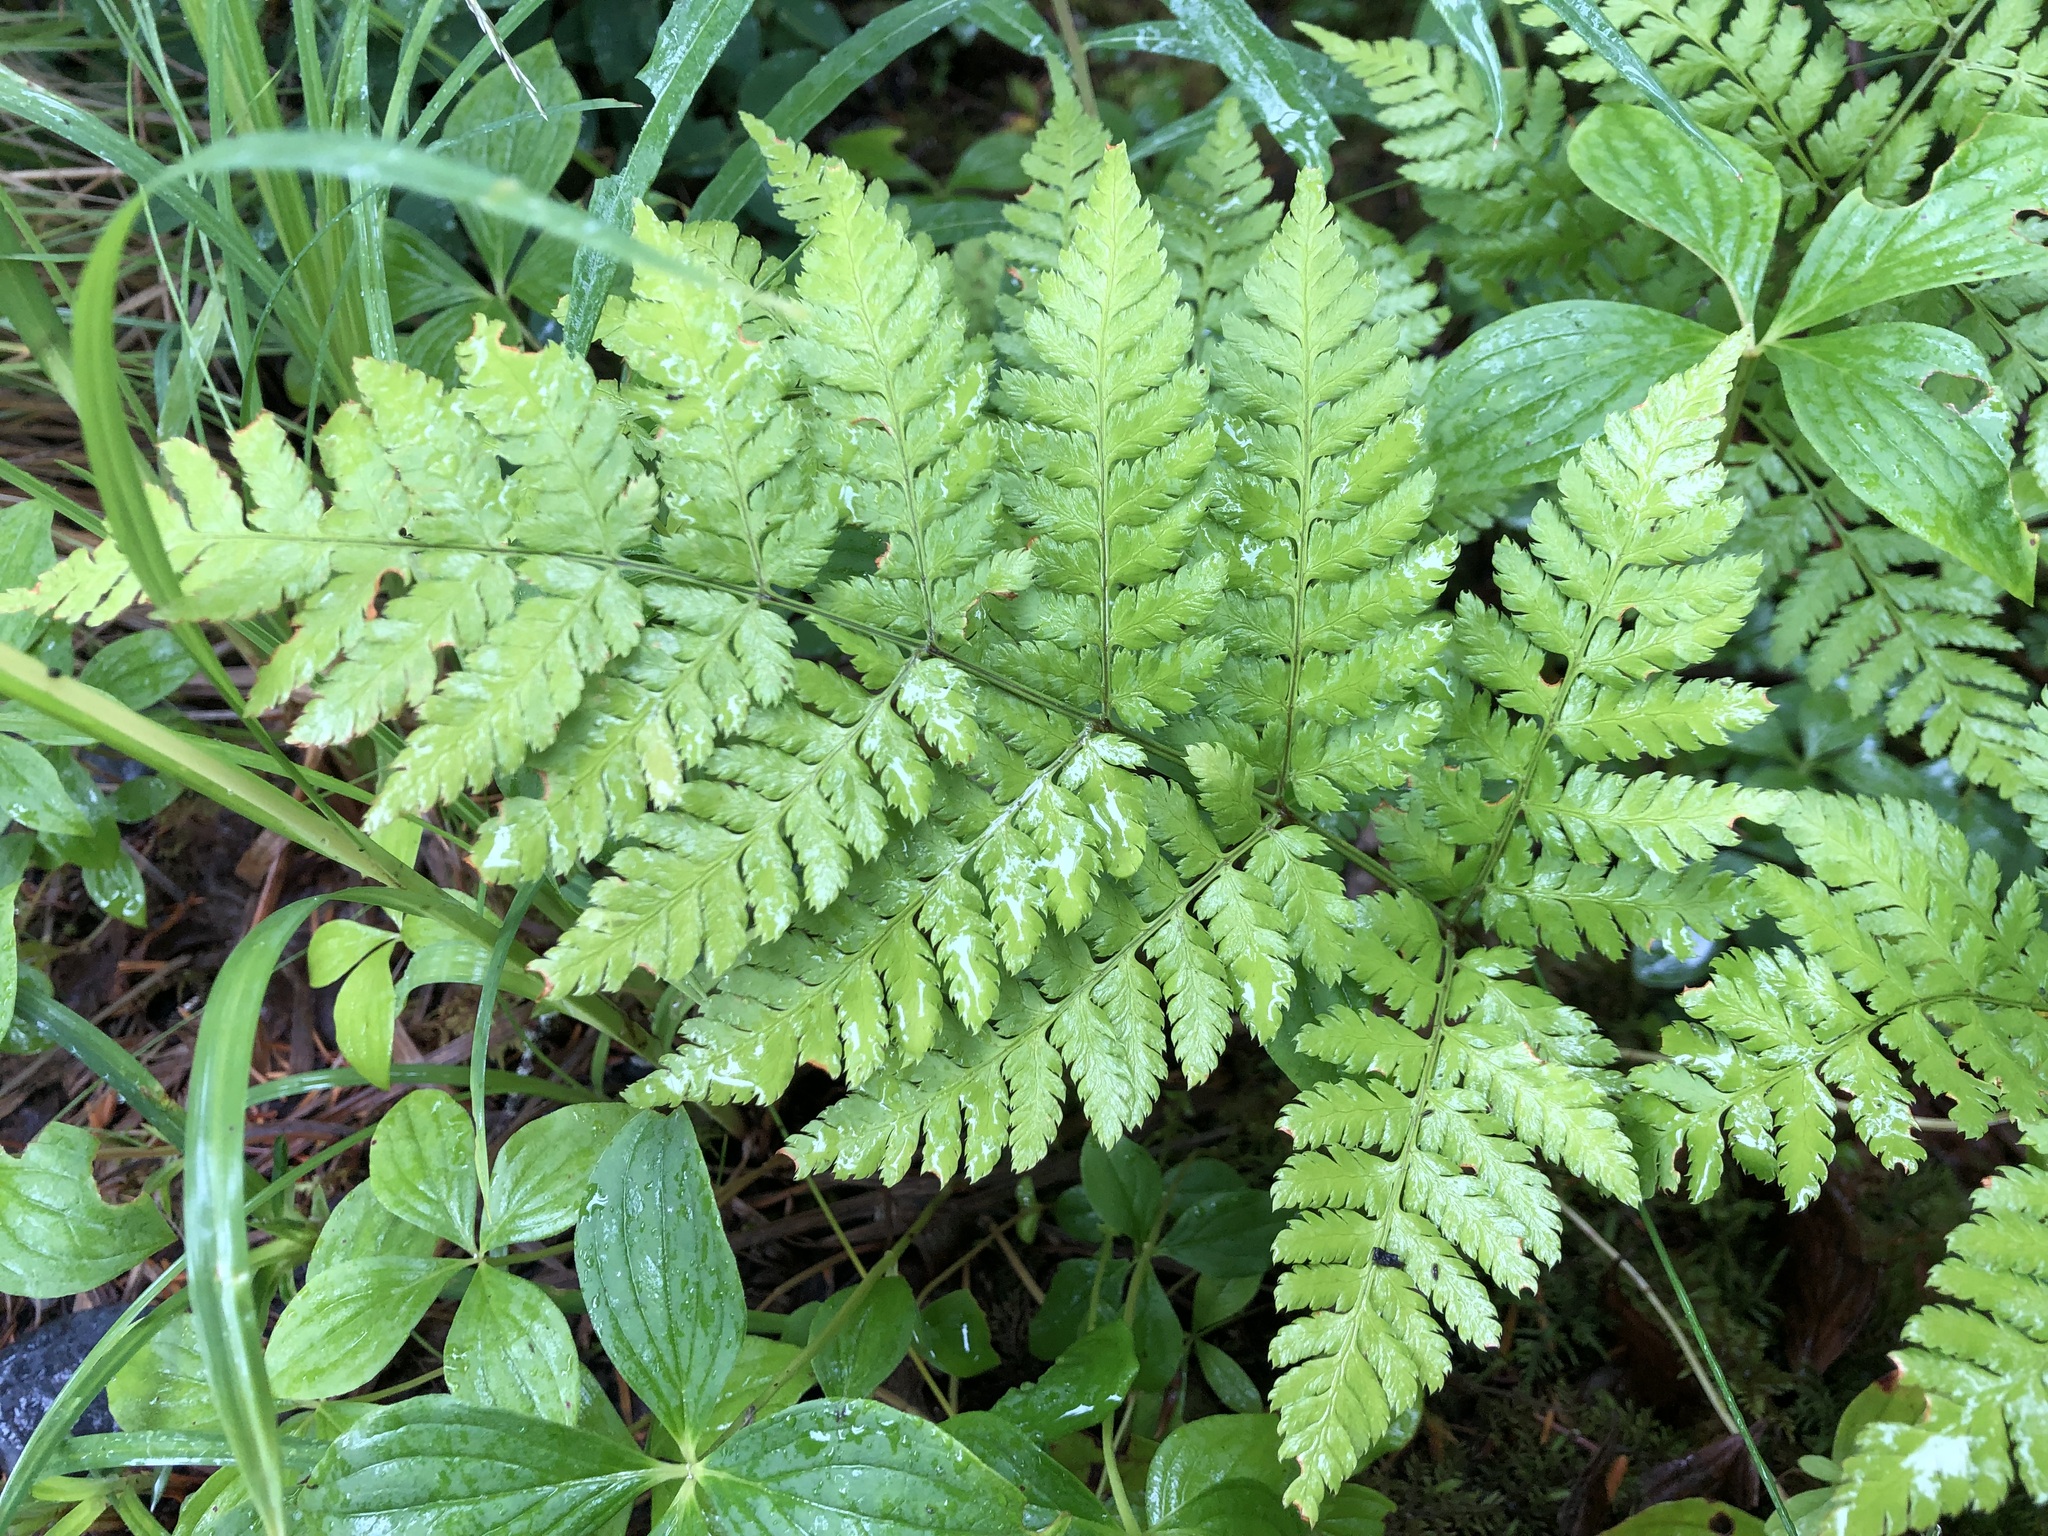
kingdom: Plantae
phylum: Tracheophyta
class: Polypodiopsida
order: Polypodiales
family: Dryopteridaceae
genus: Dryopteris
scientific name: Dryopteris expansa
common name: Northern buckler fern
